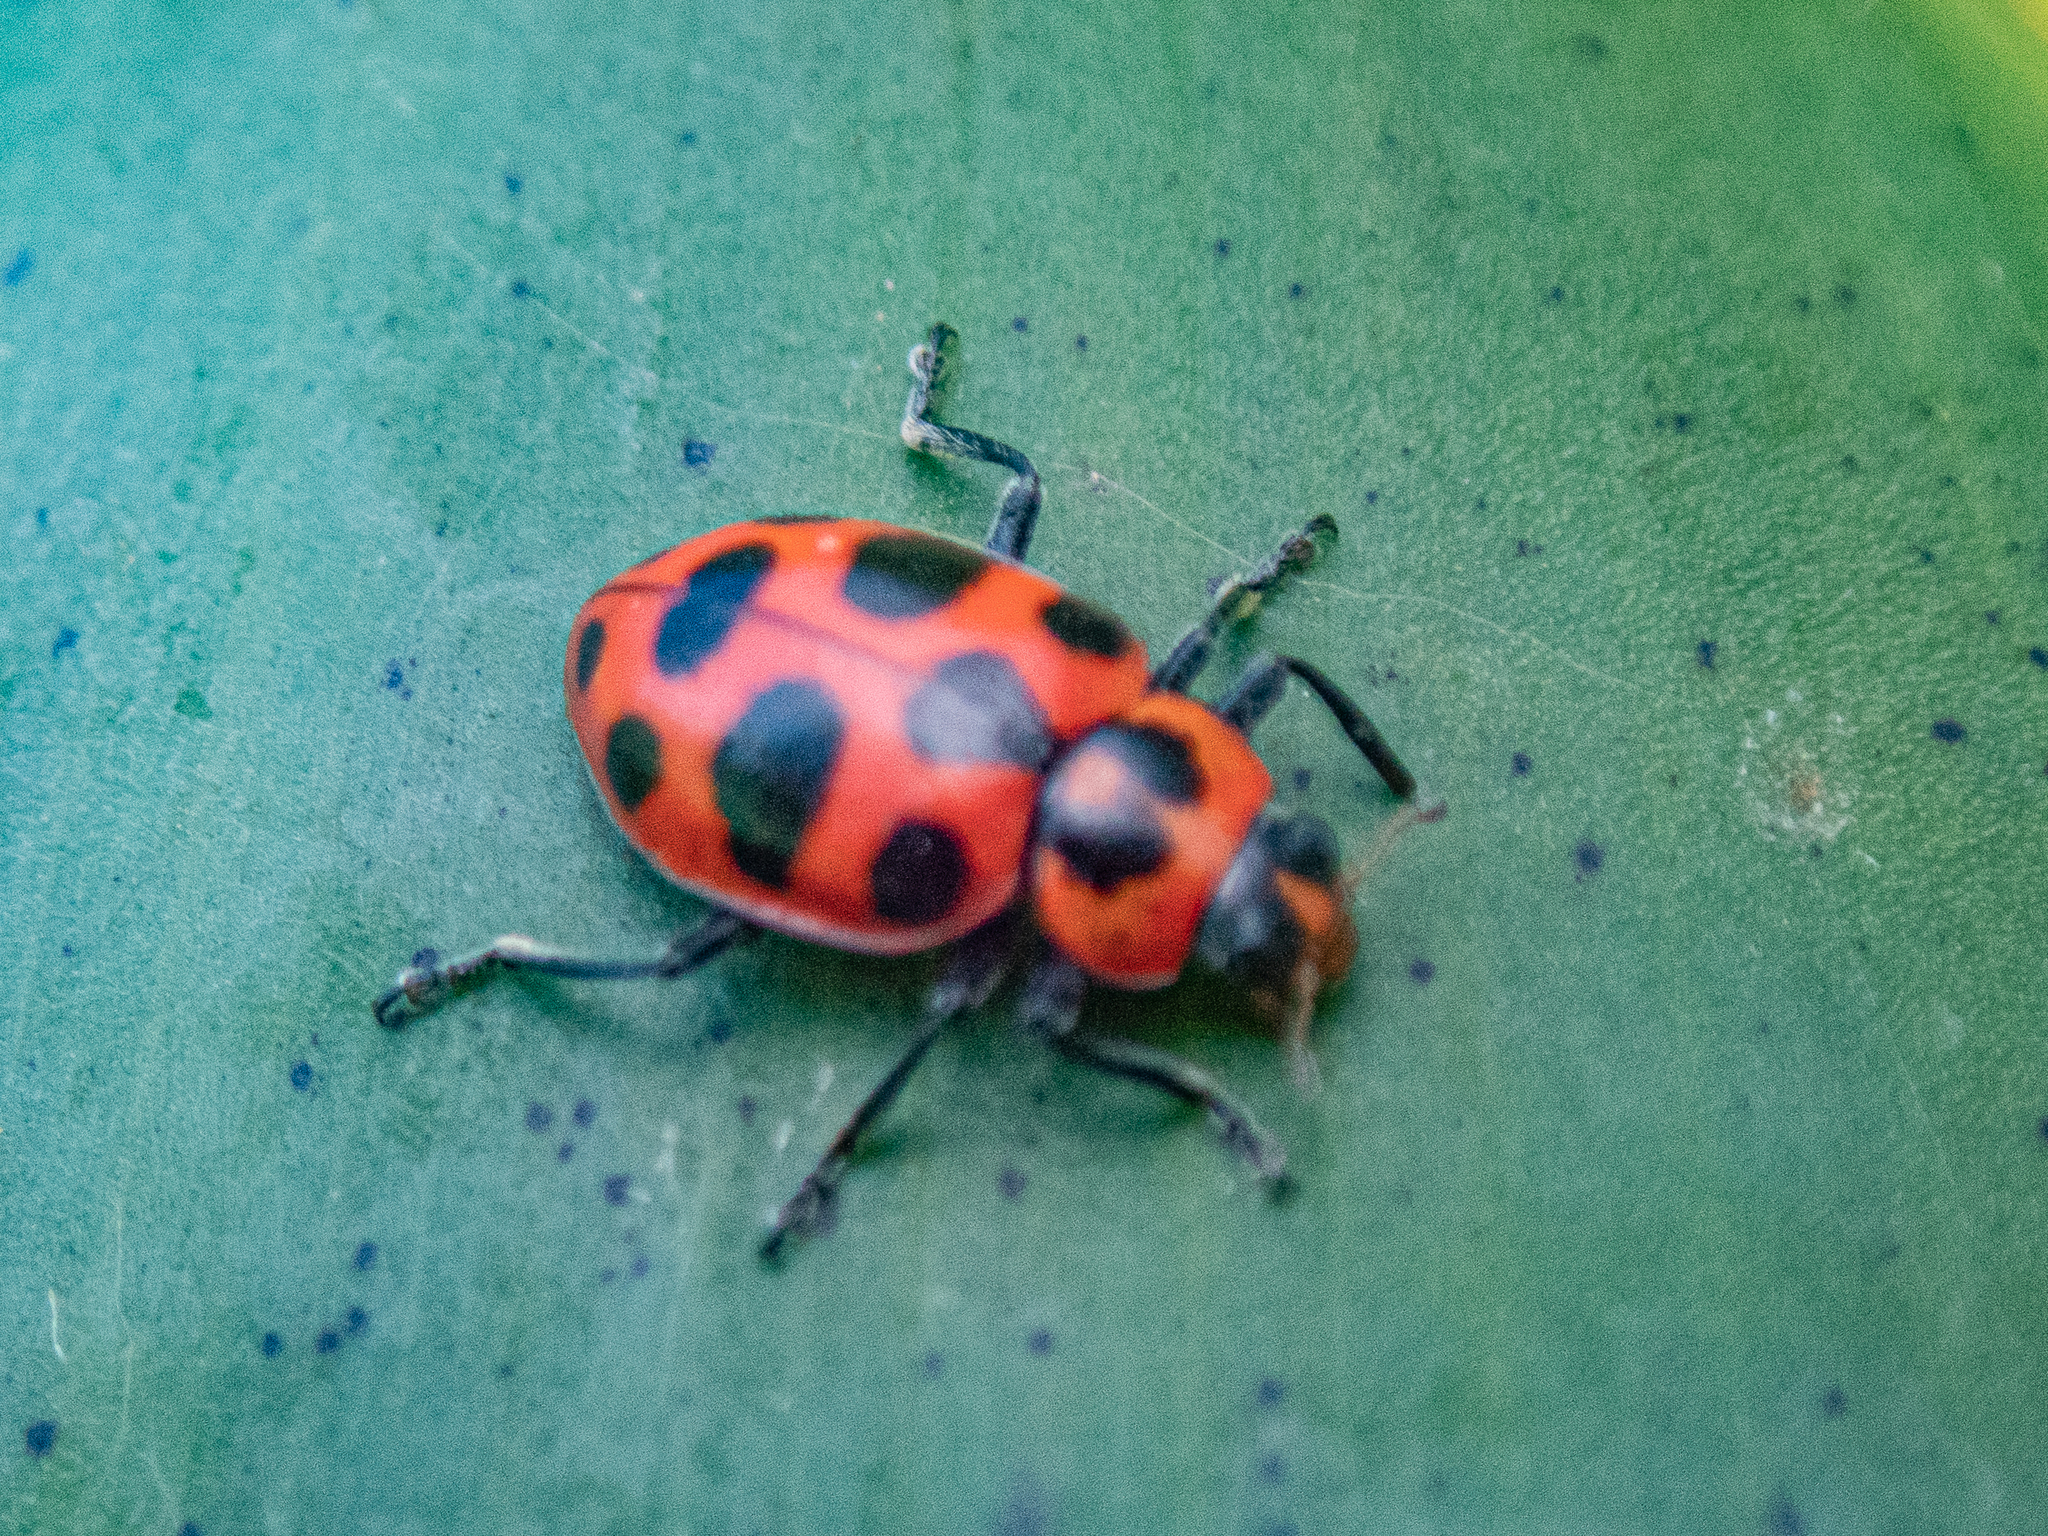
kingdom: Animalia
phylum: Arthropoda
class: Insecta
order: Coleoptera
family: Coccinellidae
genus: Coleomegilla
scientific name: Coleomegilla maculata
